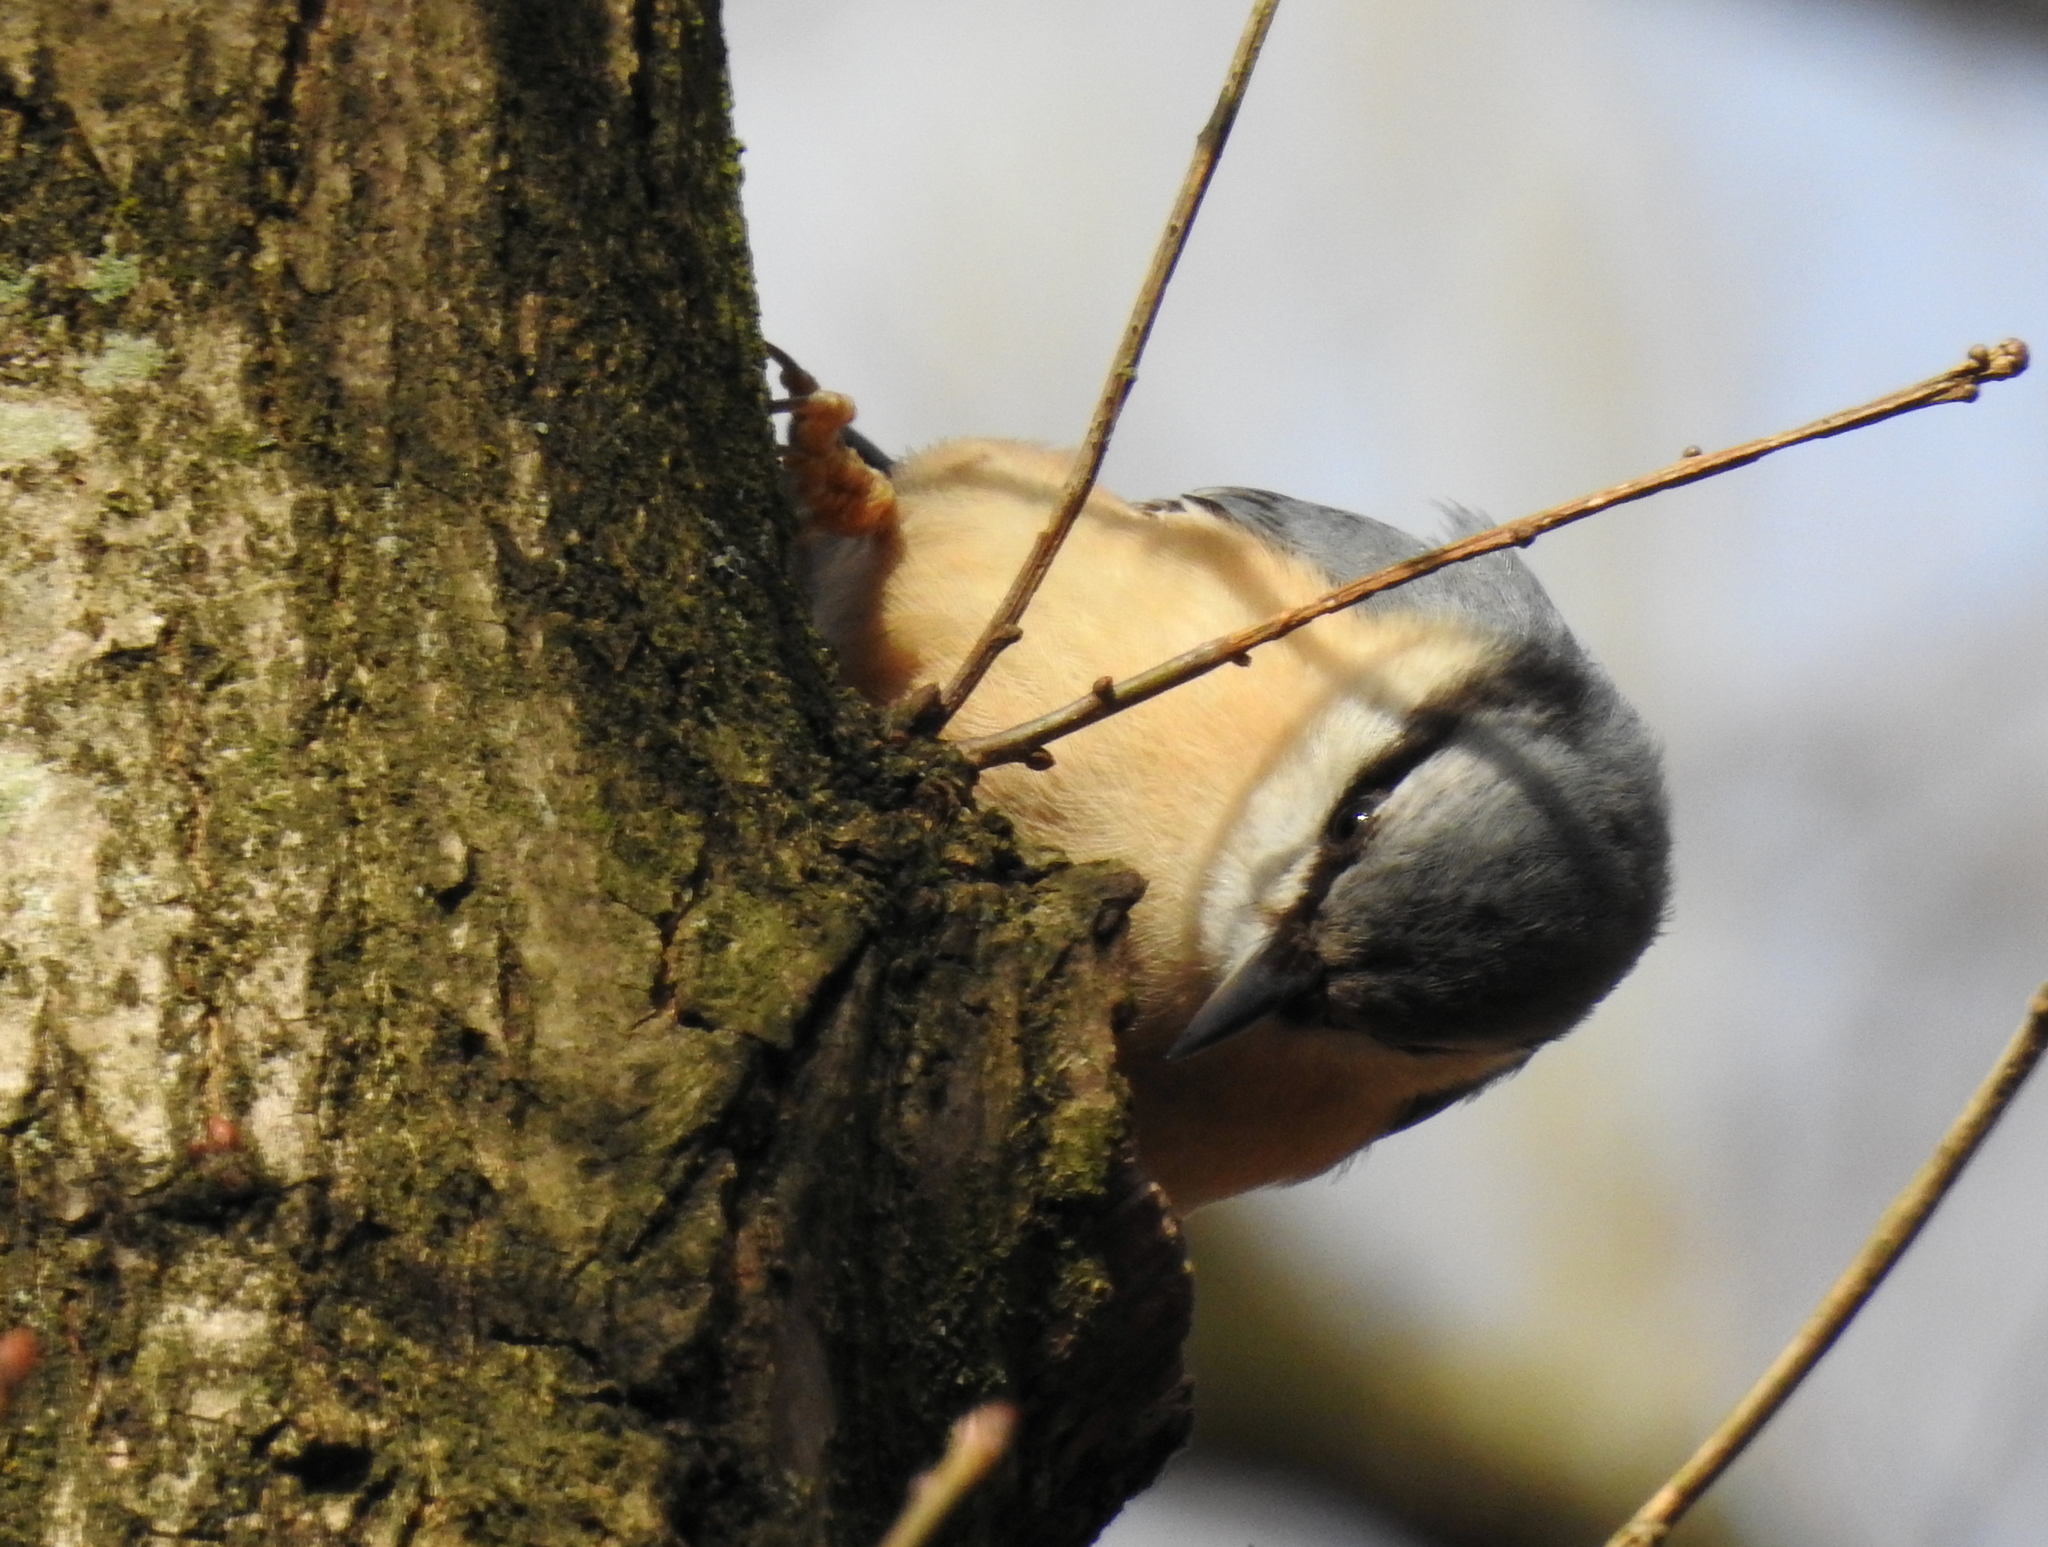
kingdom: Animalia
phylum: Chordata
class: Aves
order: Passeriformes
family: Sittidae
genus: Sitta
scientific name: Sitta europaea
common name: Eurasian nuthatch
